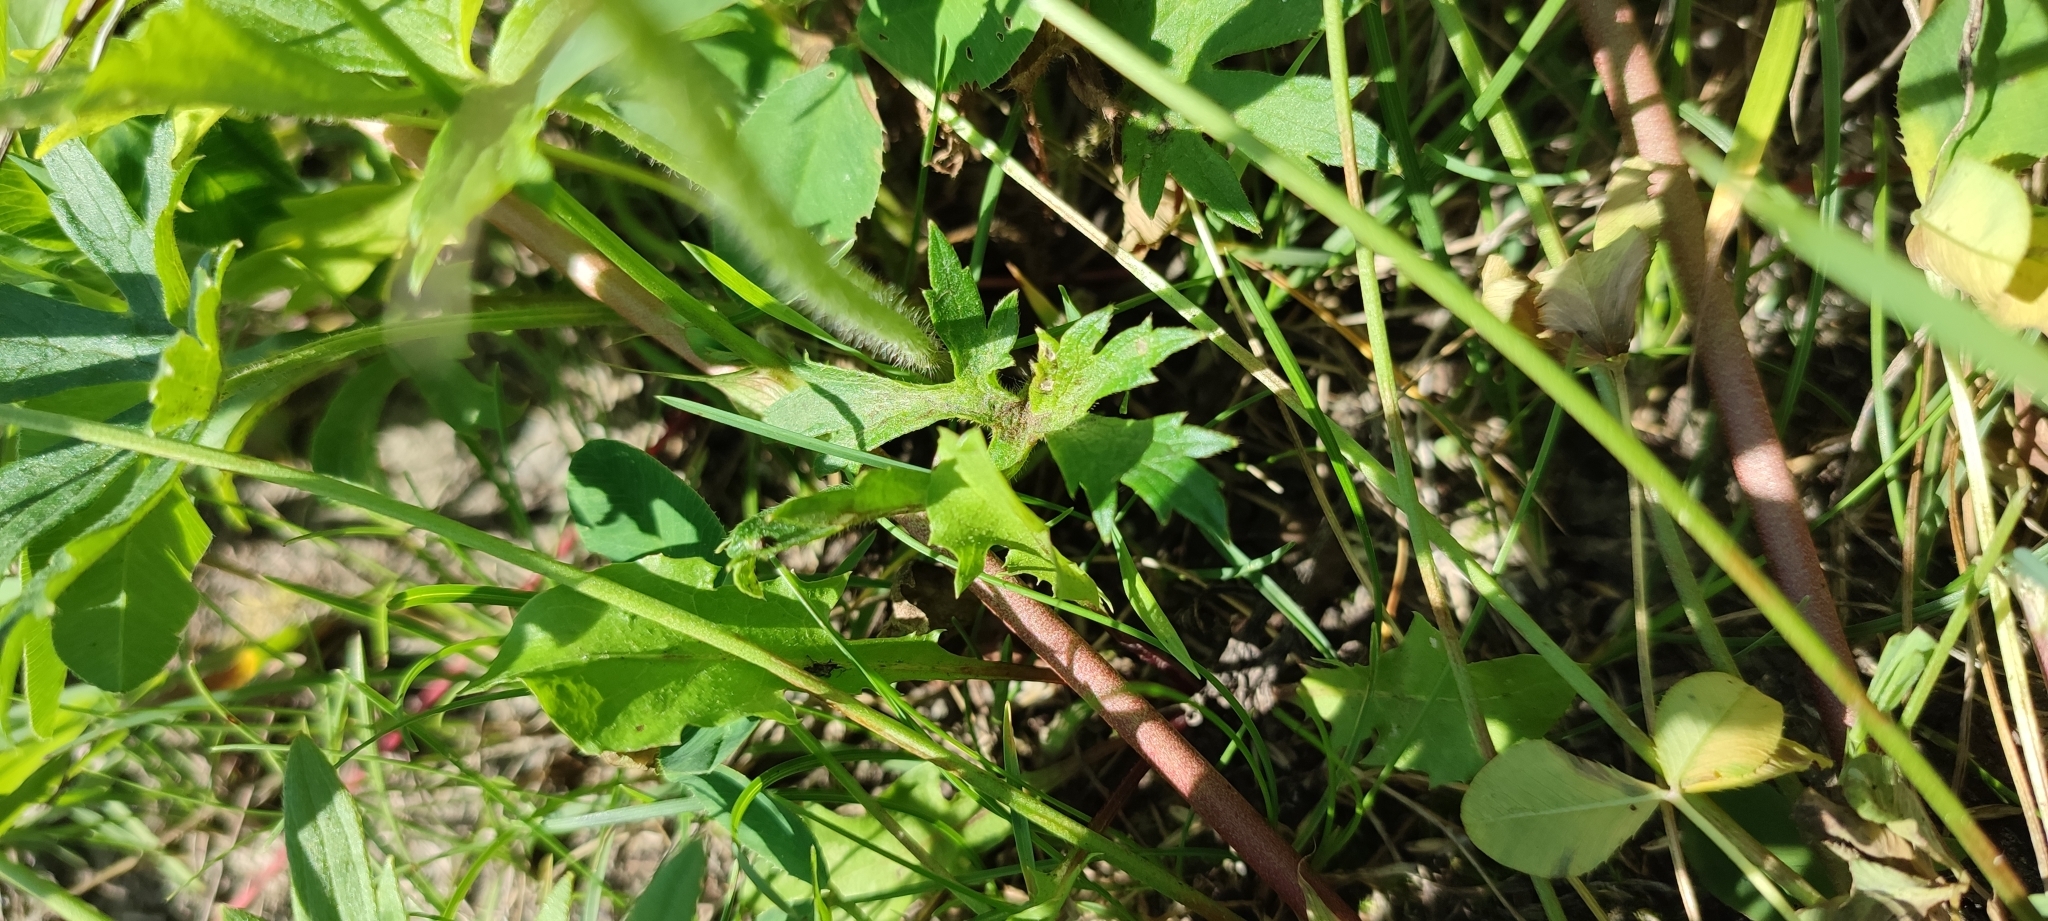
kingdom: Plantae
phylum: Tracheophyta
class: Magnoliopsida
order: Ranunculales
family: Ranunculaceae
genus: Ranunculus
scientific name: Ranunculus polyanthemos
